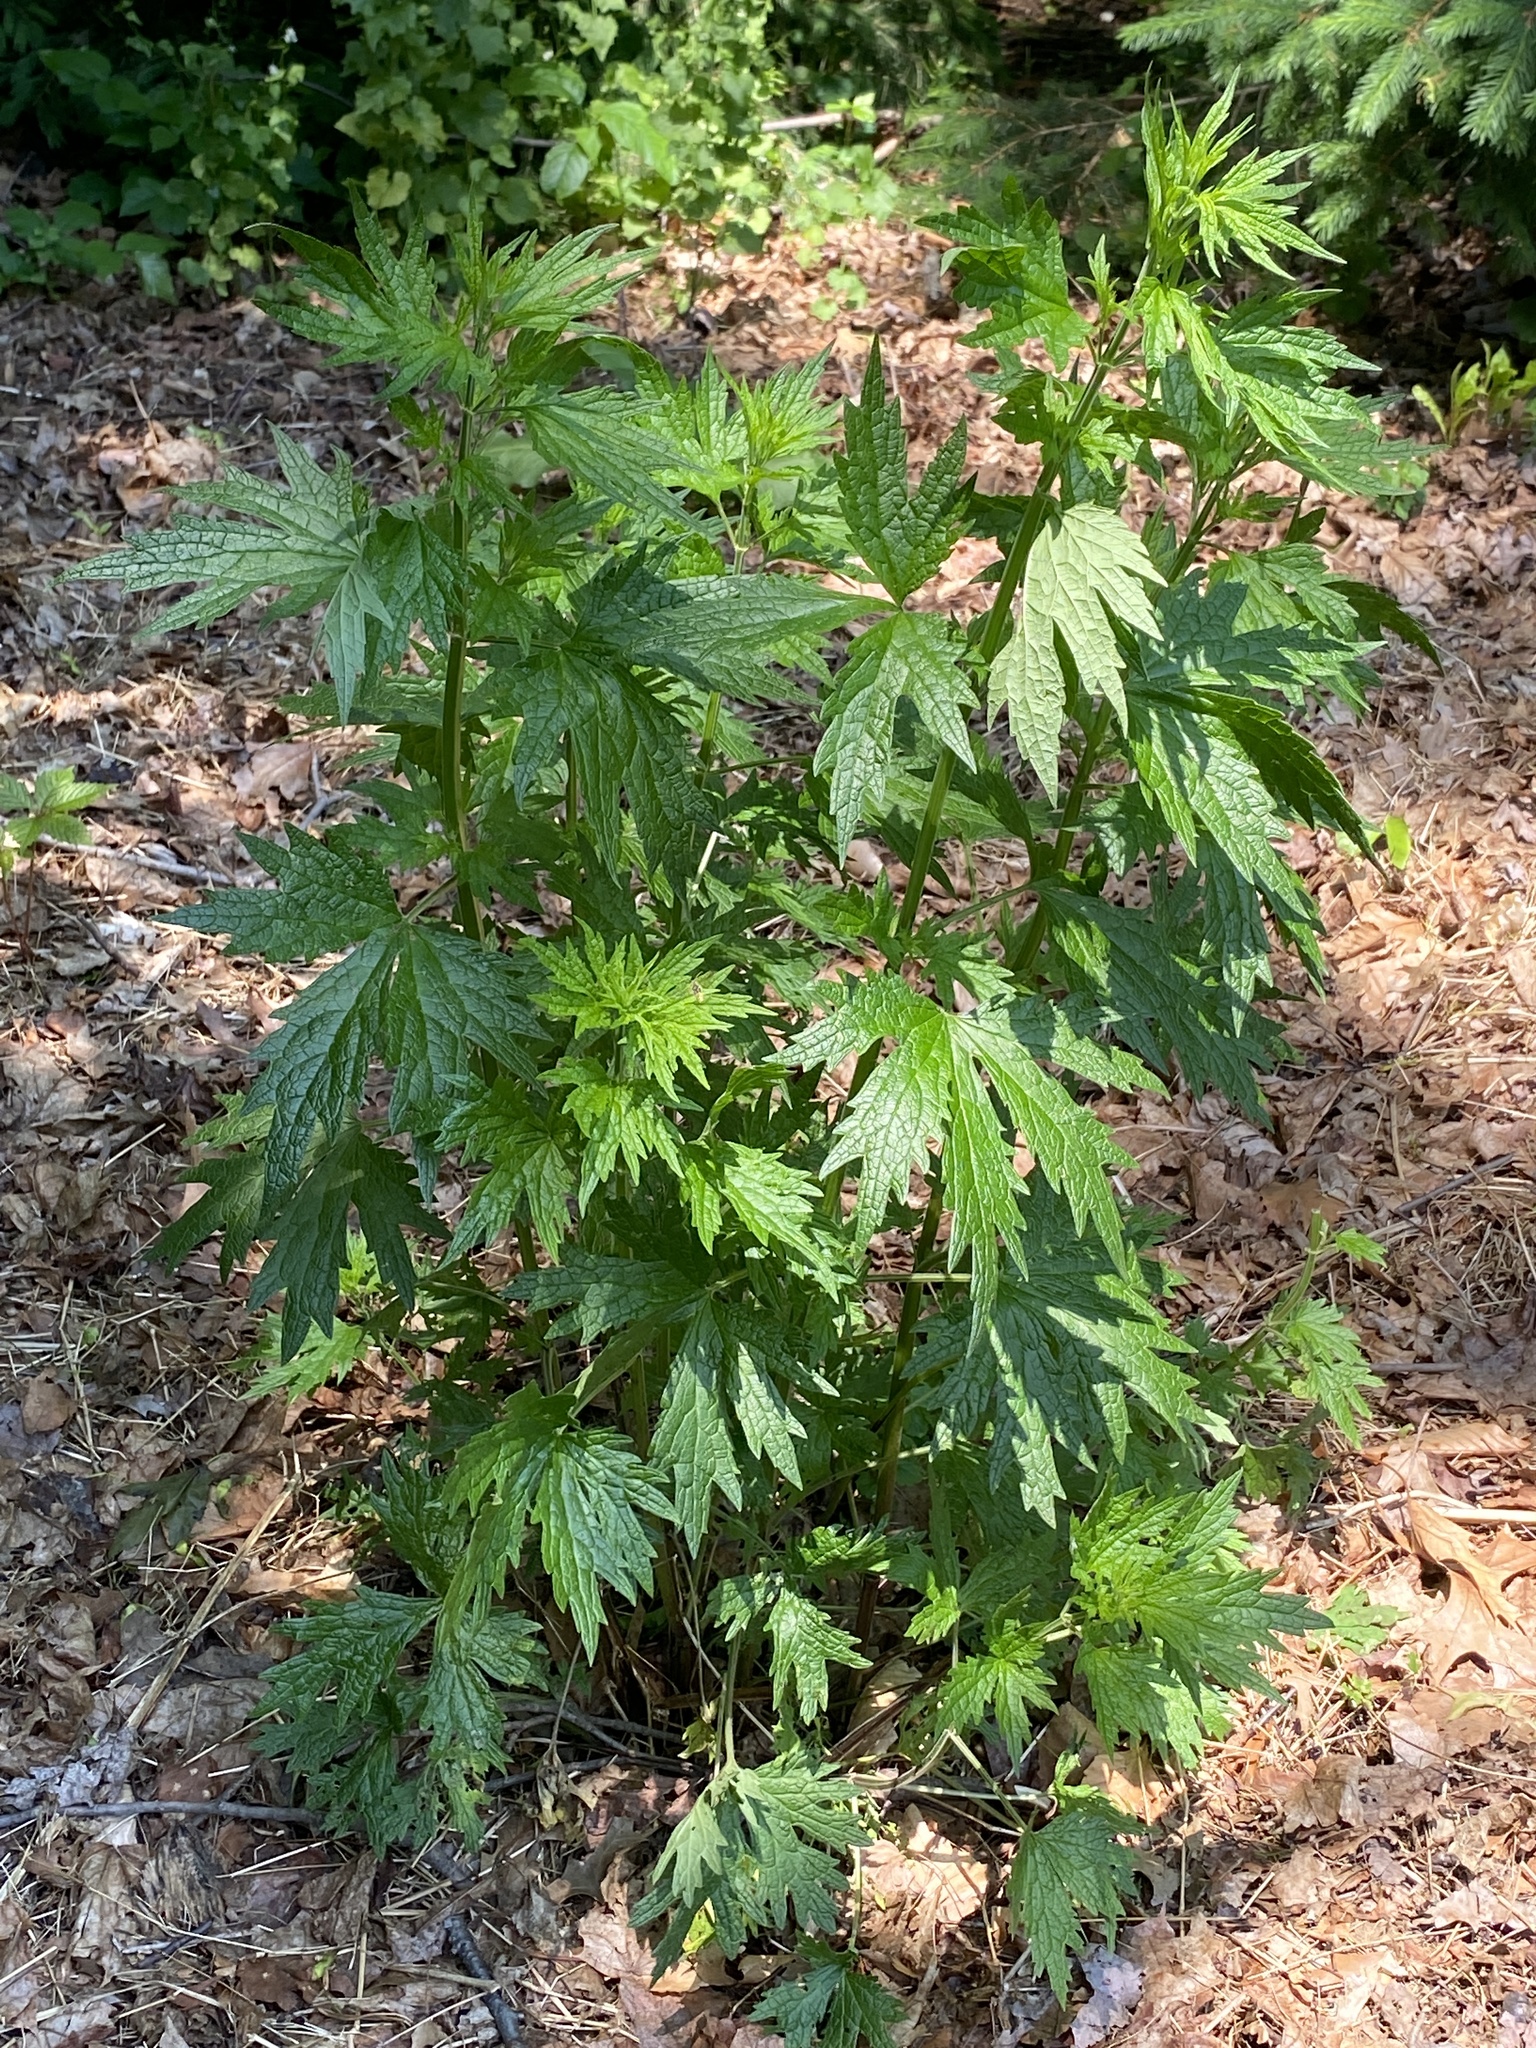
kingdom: Plantae
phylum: Tracheophyta
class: Magnoliopsida
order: Lamiales
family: Lamiaceae
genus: Leonurus
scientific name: Leonurus cardiaca
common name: Motherwort
